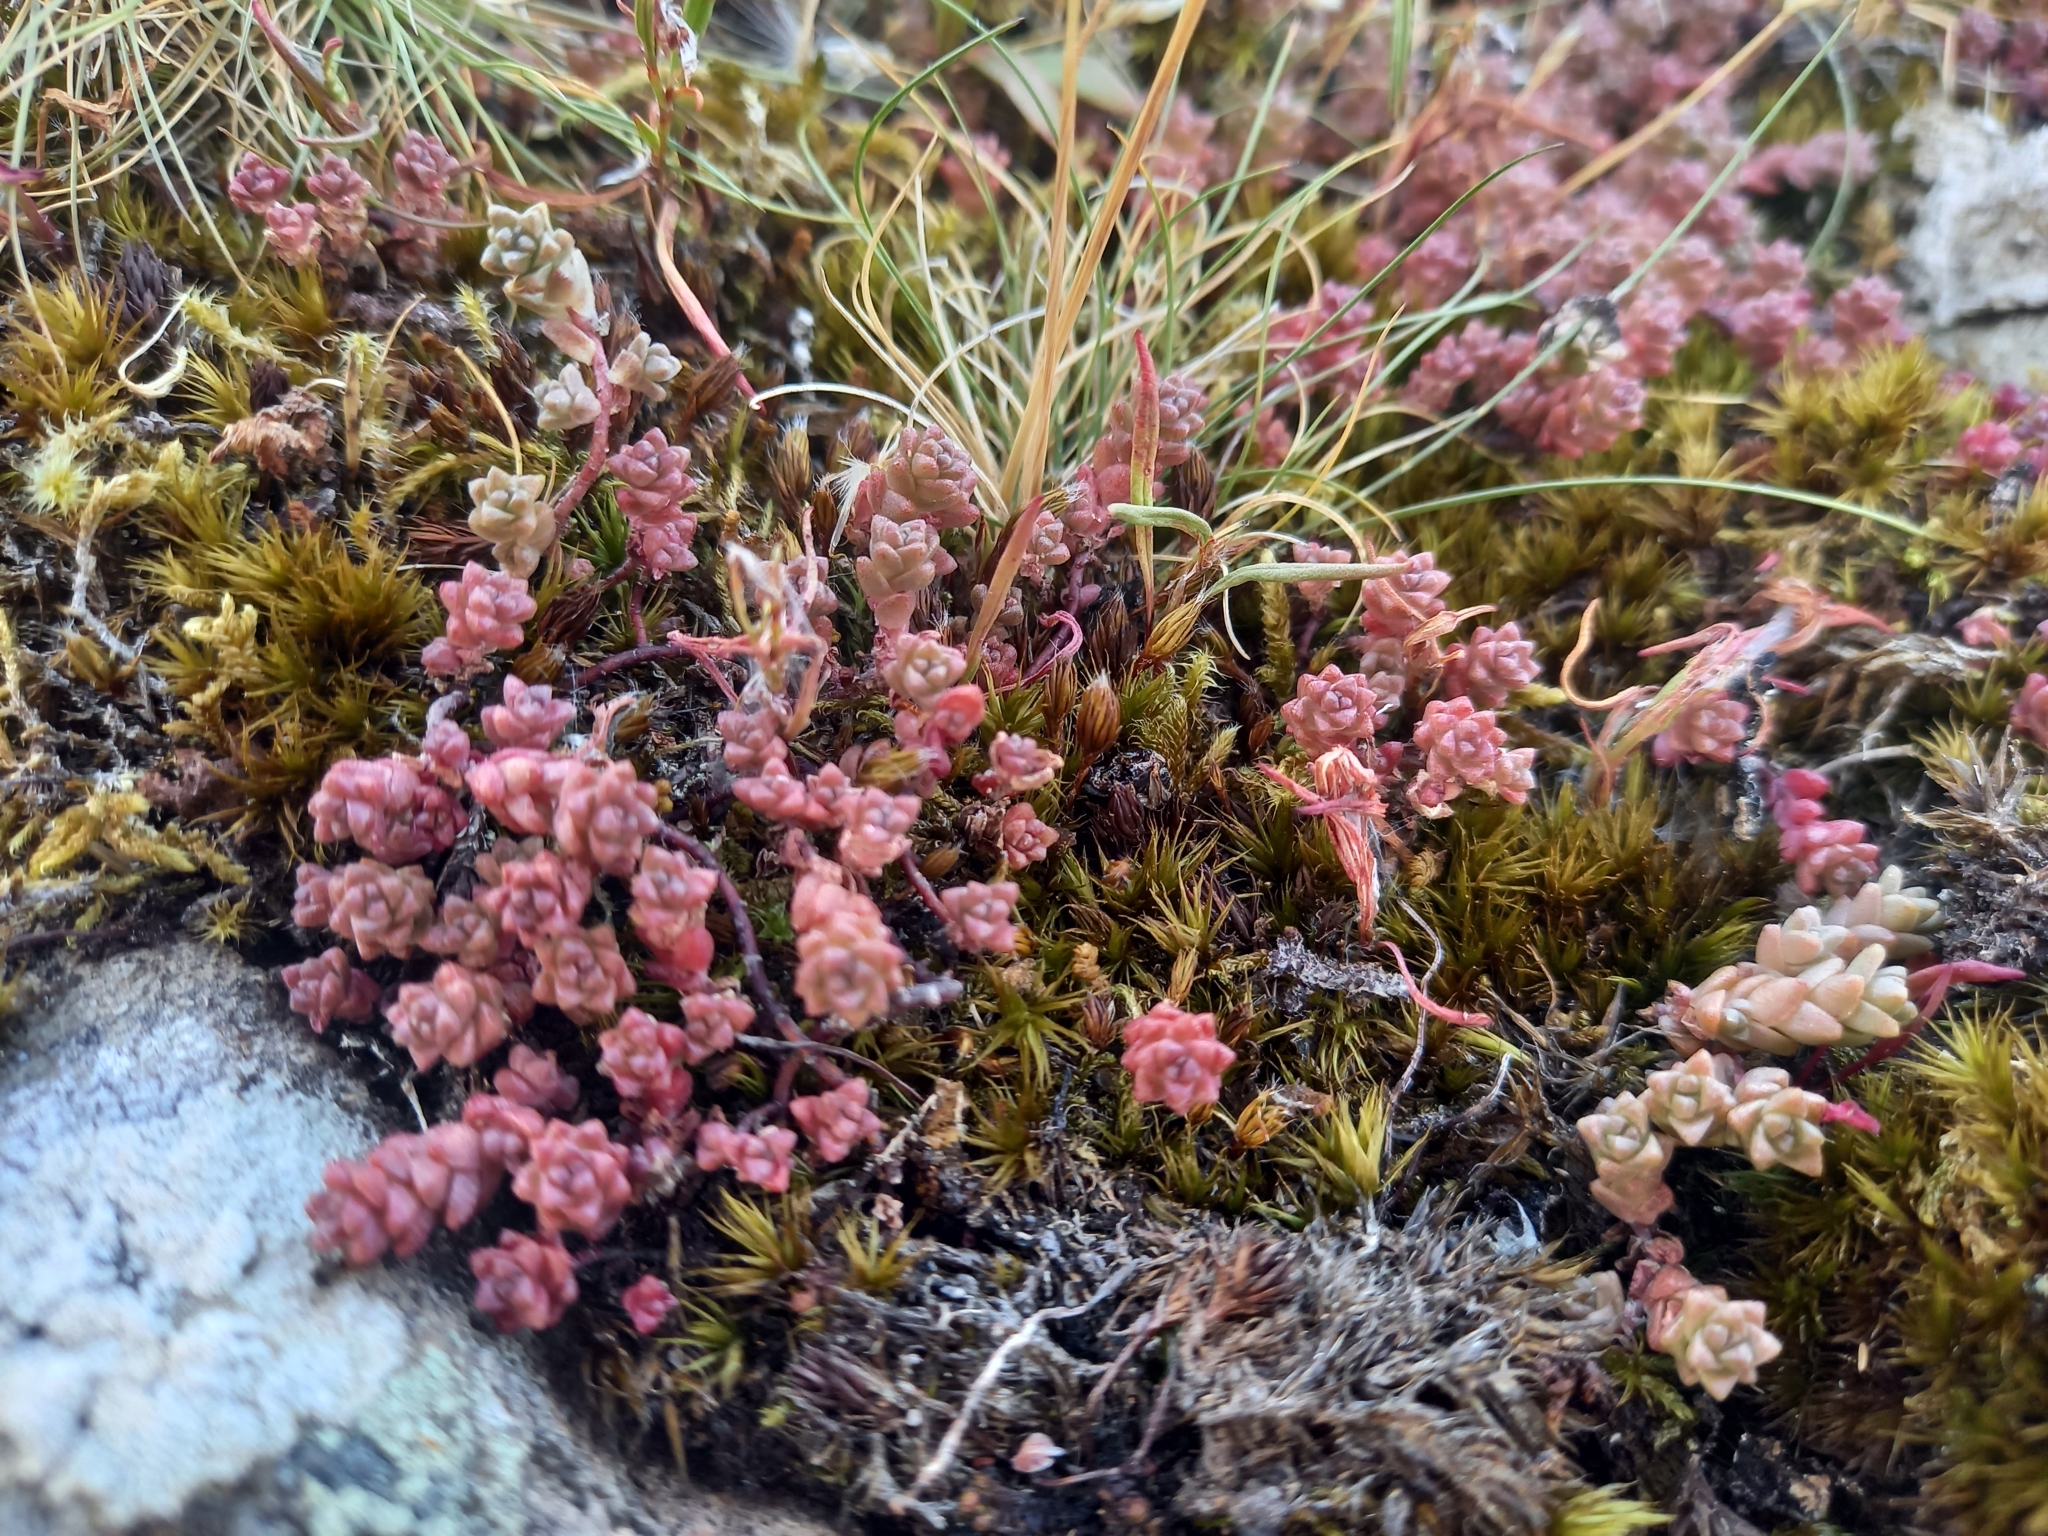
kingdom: Plantae
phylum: Tracheophyta
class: Magnoliopsida
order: Saxifragales
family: Crassulaceae
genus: Sedum
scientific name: Sedum anglicum
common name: English stonecrop
